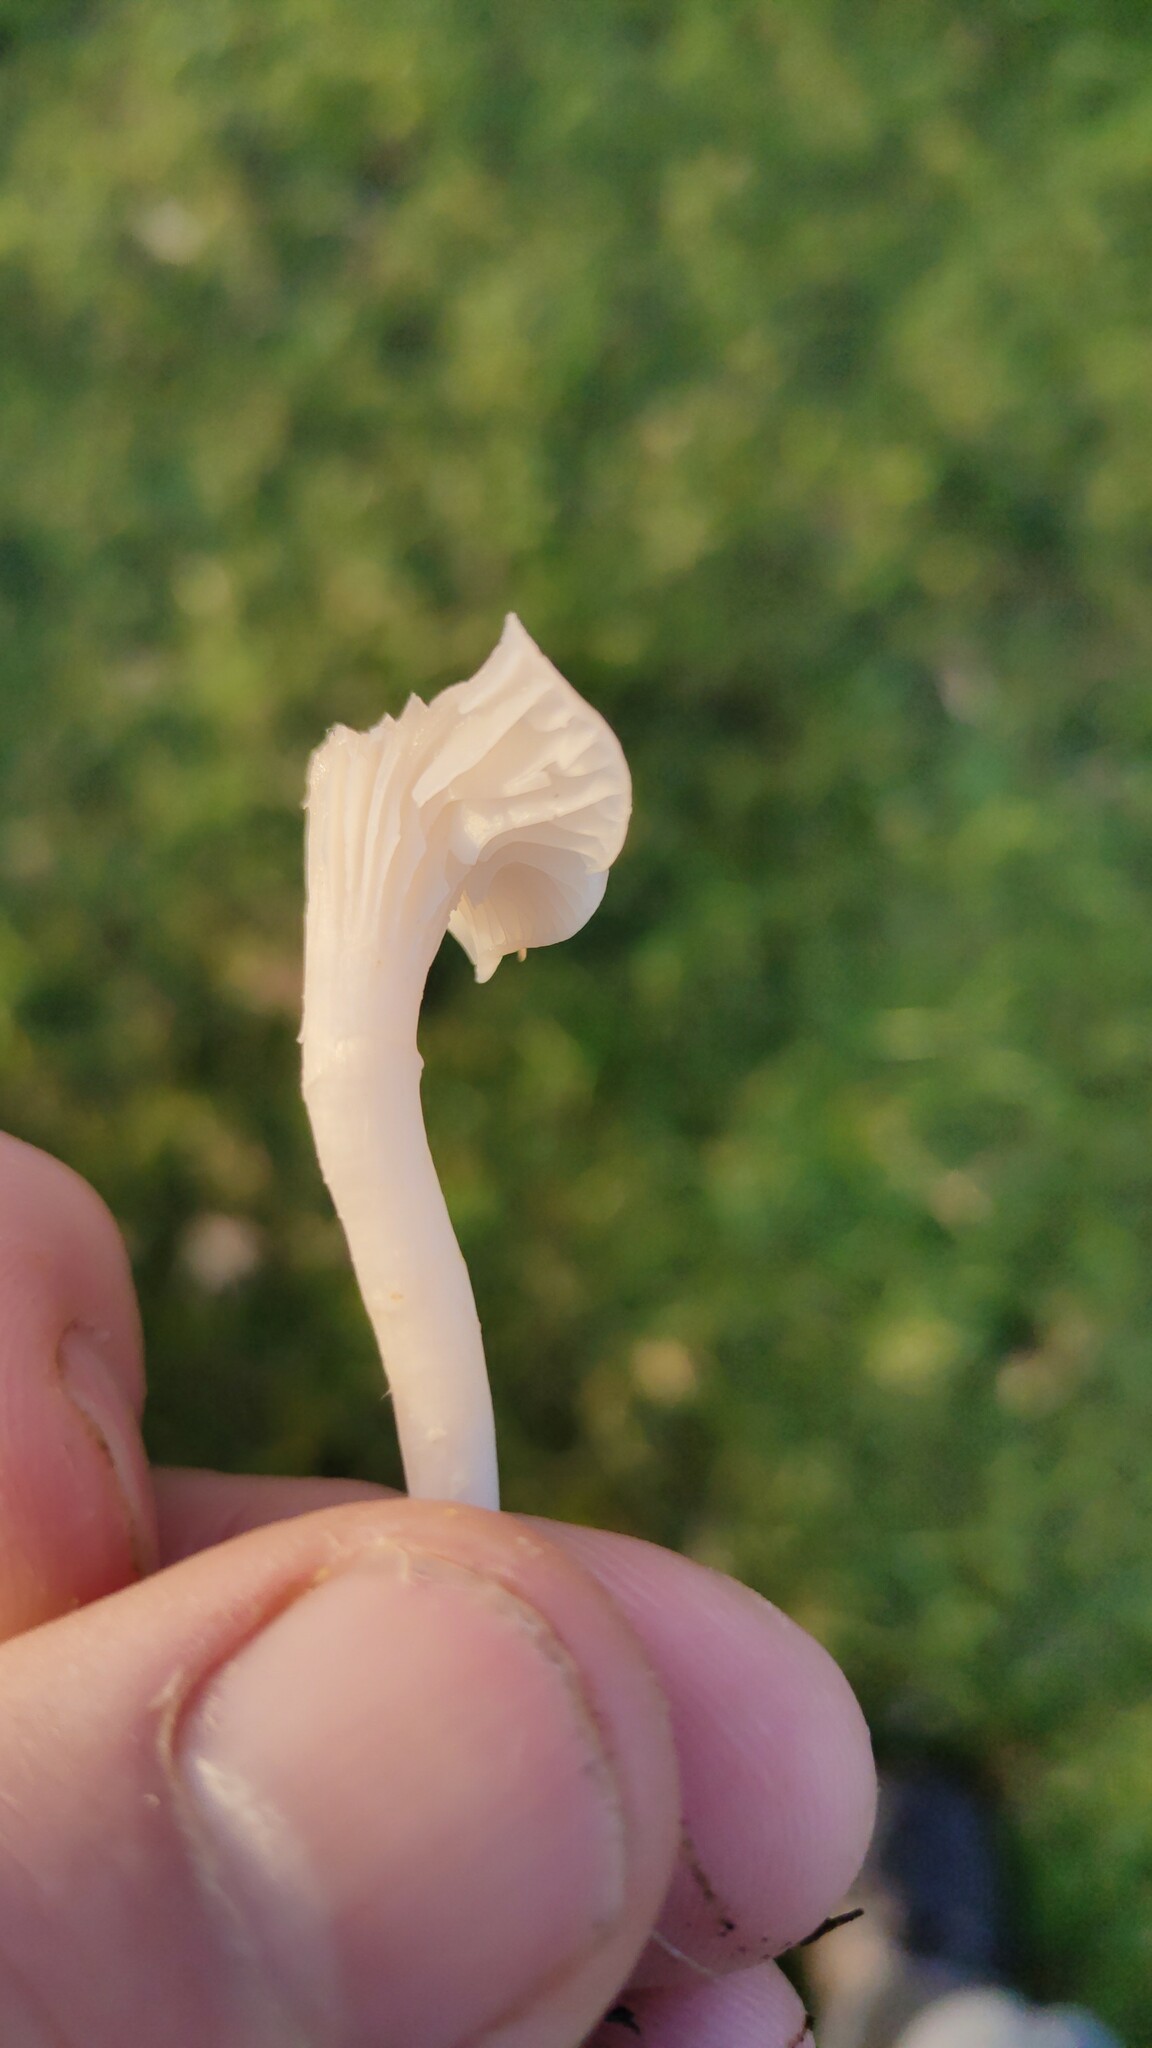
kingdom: Fungi
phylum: Basidiomycota
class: Agaricomycetes
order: Agaricales
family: Hygrophoraceae
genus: Cuphophyllus
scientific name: Cuphophyllus virgineus
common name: Snowy waxcap
